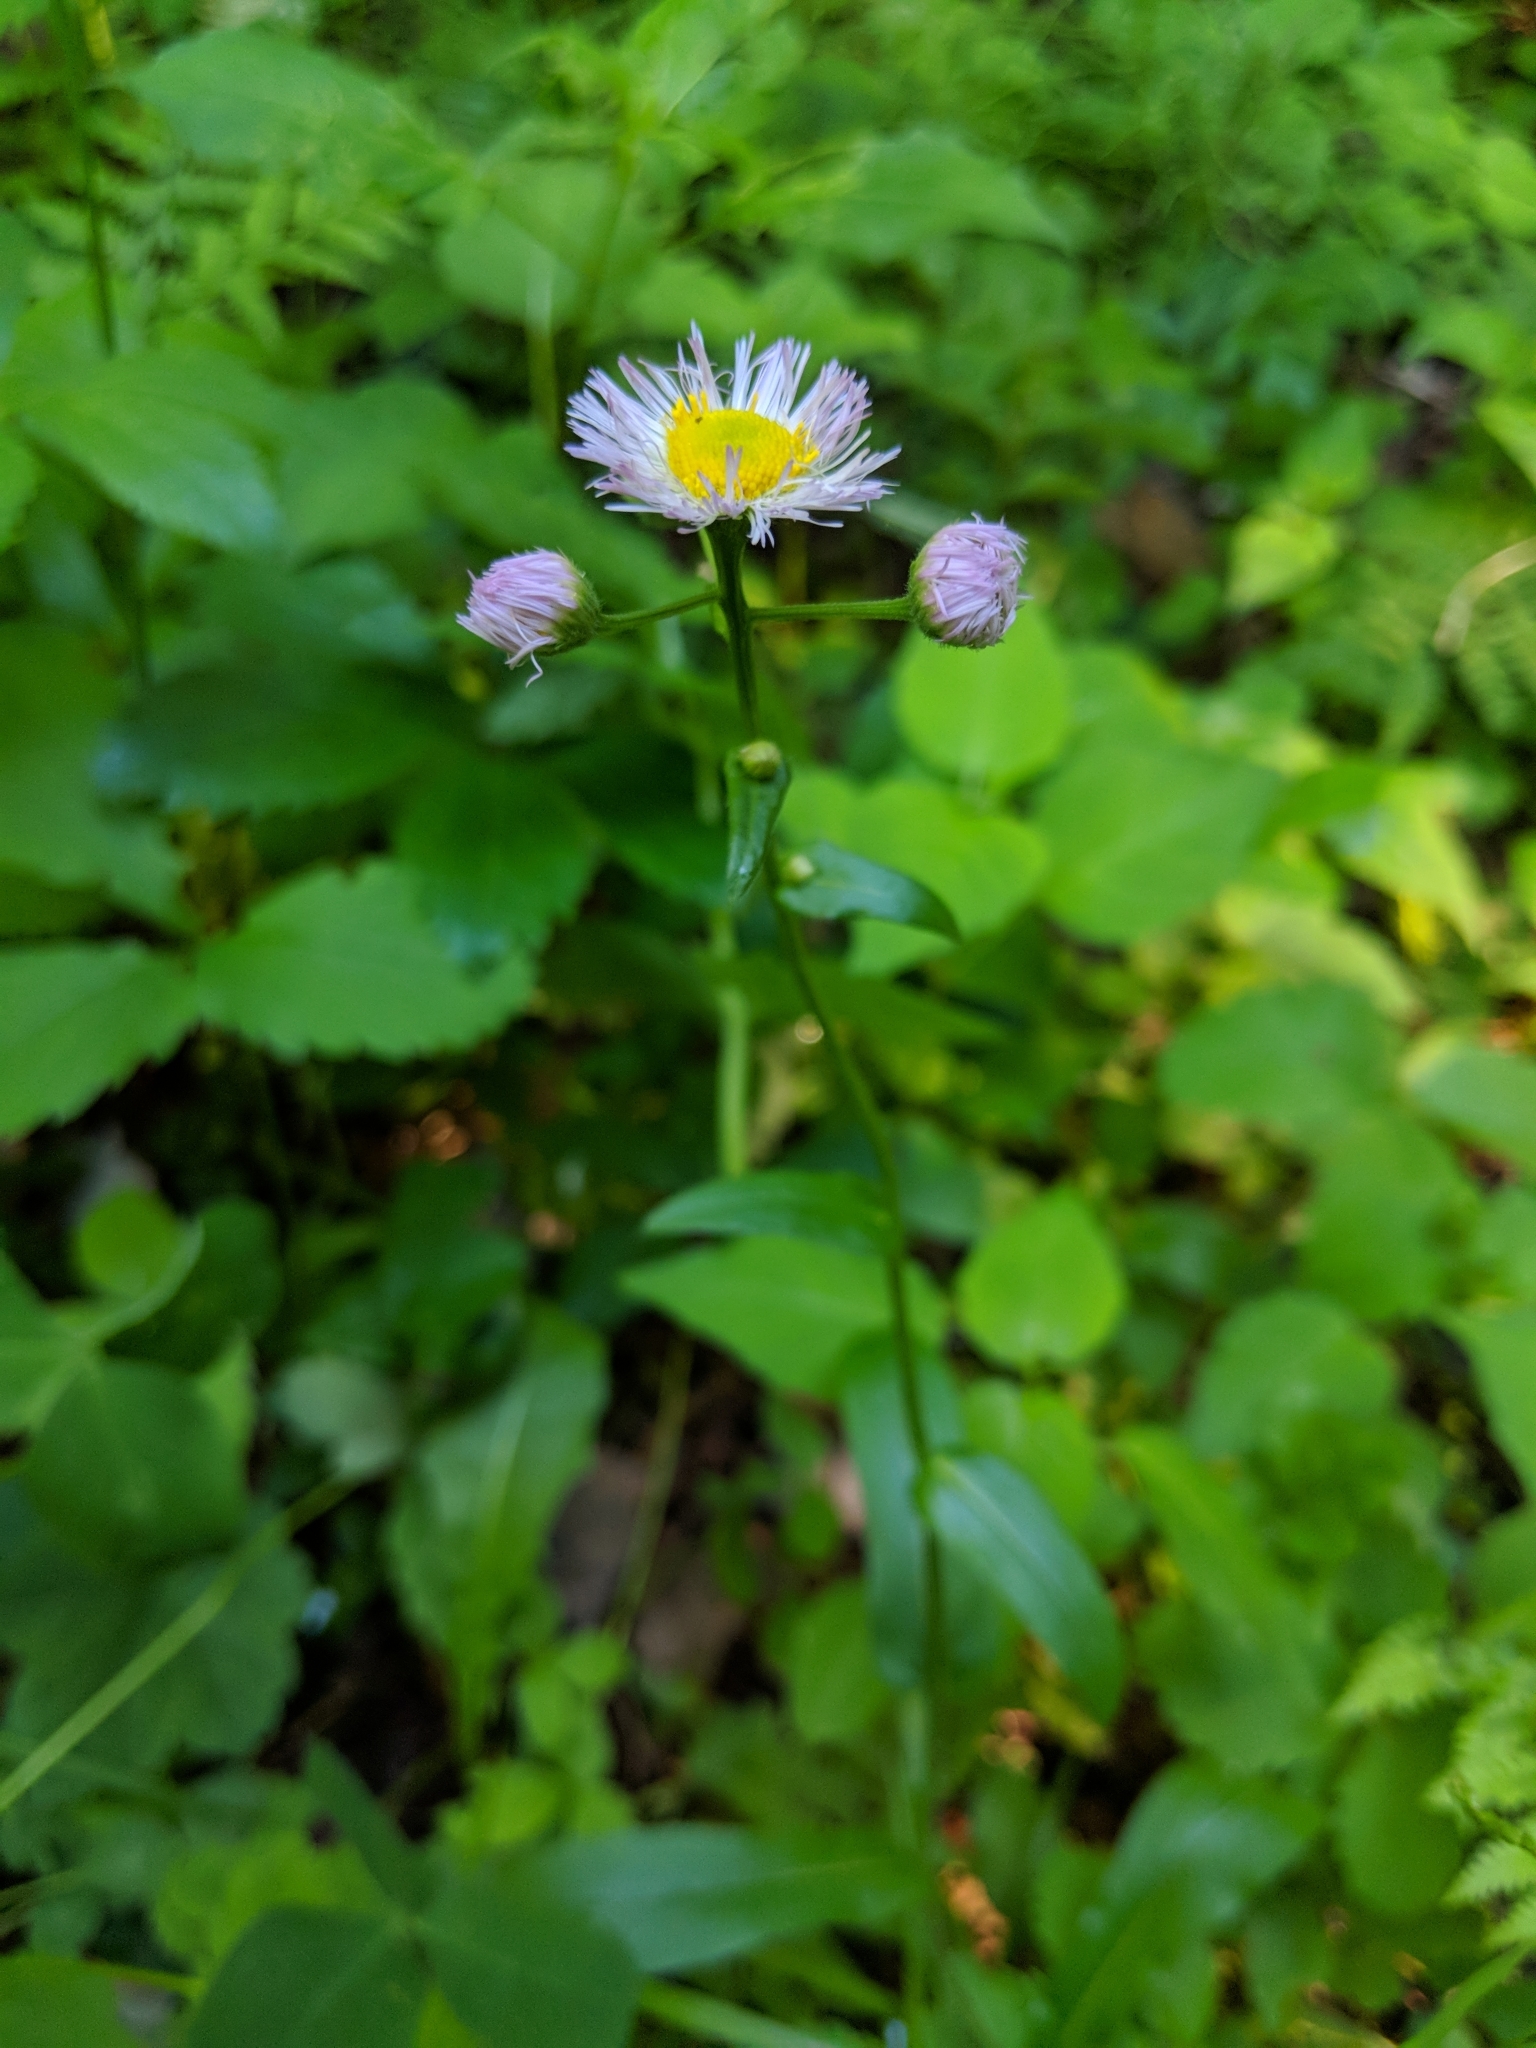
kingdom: Plantae
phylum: Tracheophyta
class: Magnoliopsida
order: Asterales
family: Asteraceae
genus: Erigeron
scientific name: Erigeron philadelphicus
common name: Robin's-plantain
